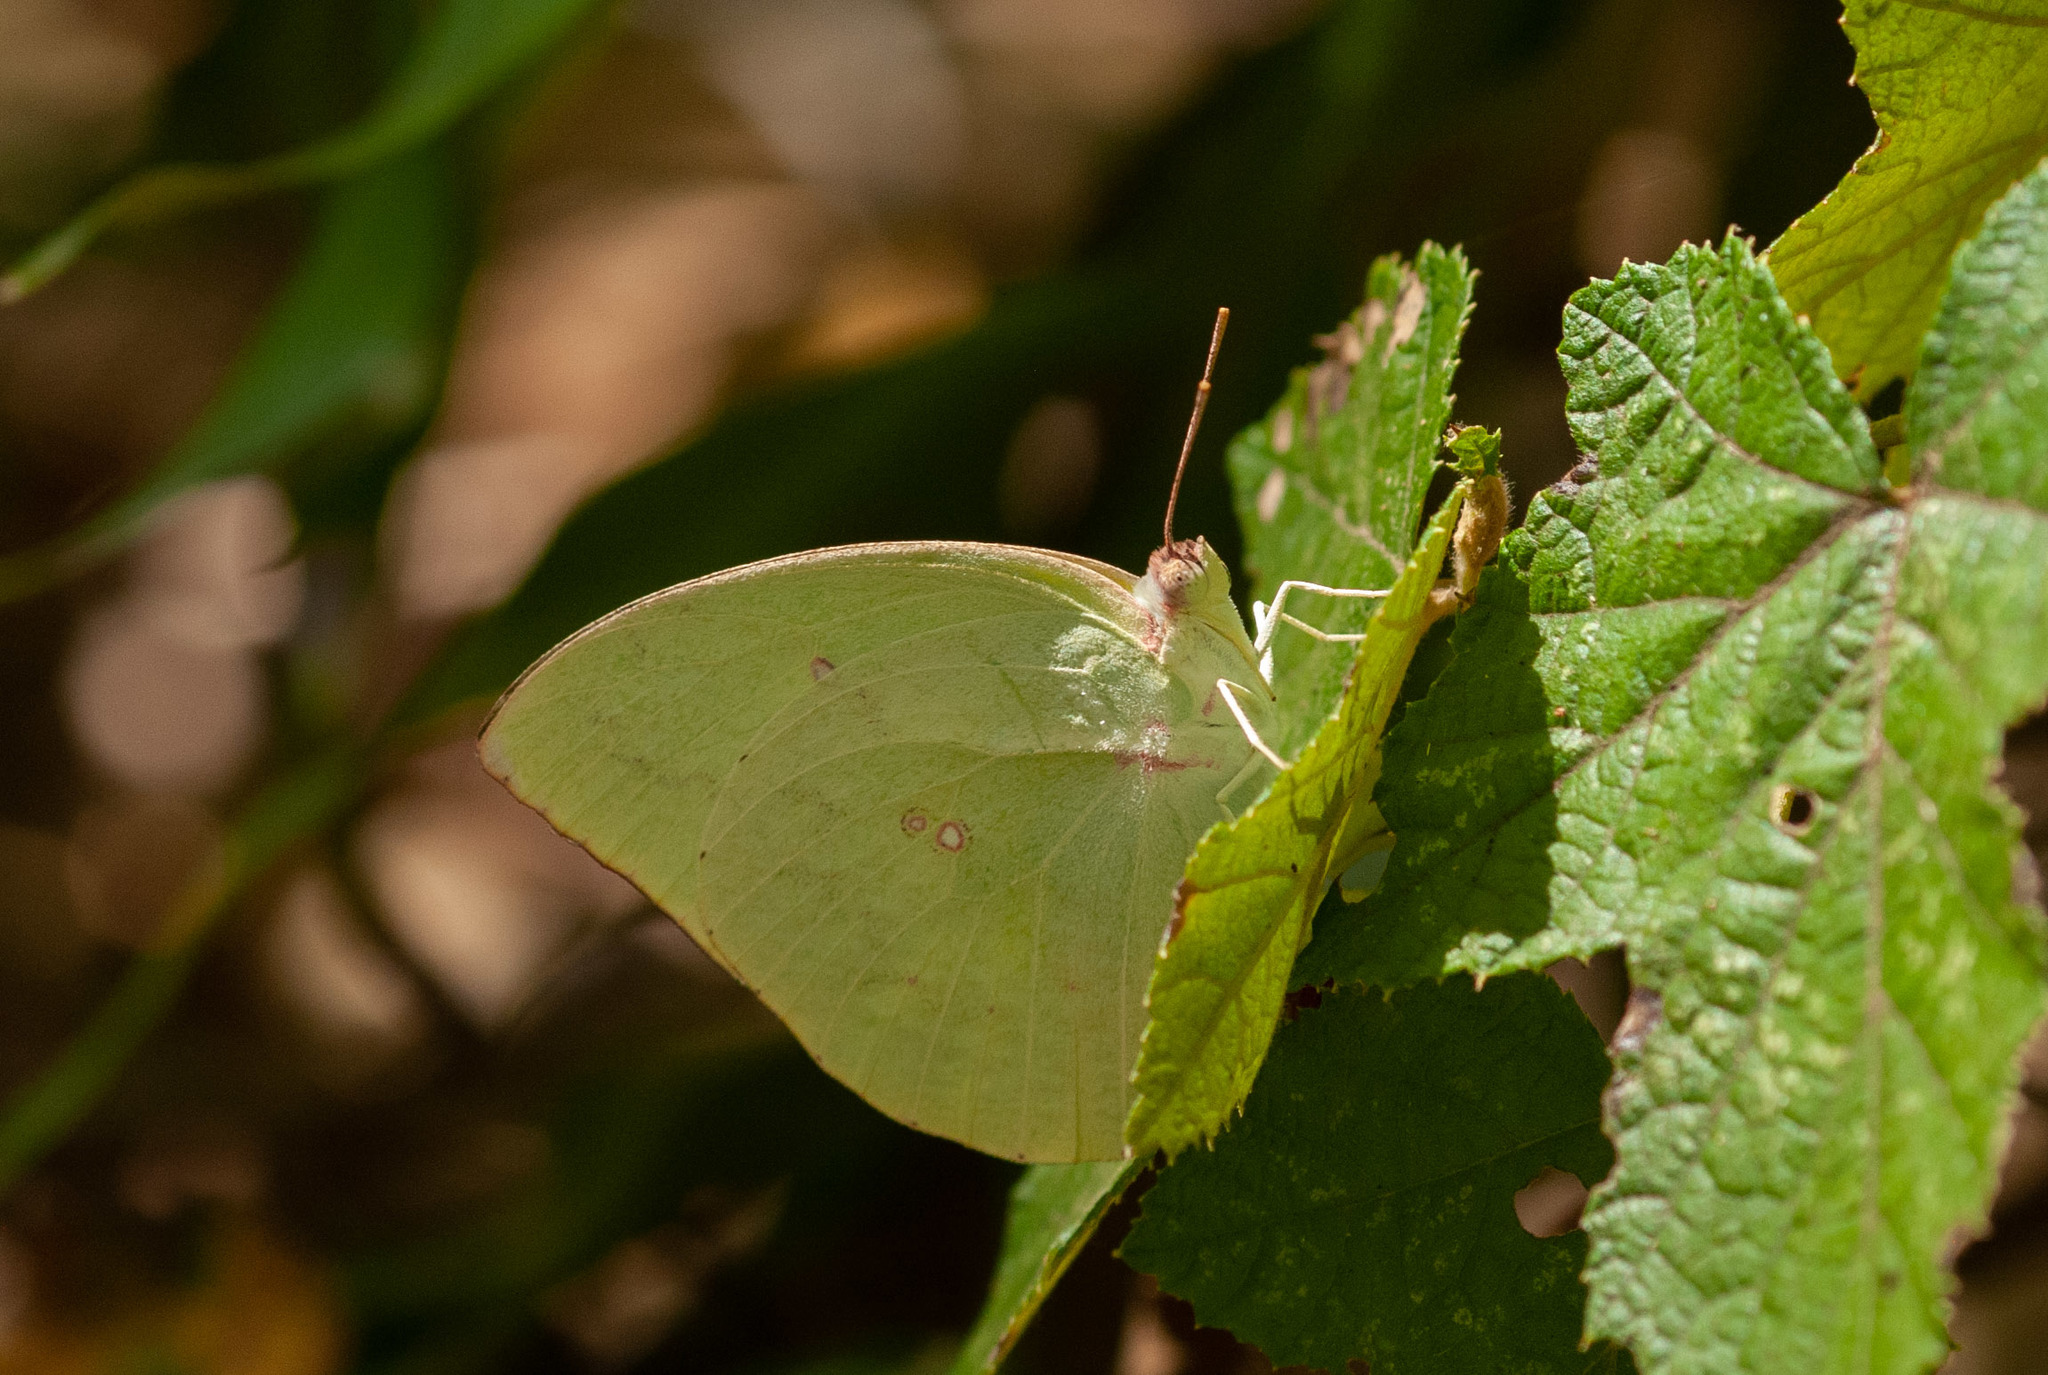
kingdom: Animalia
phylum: Arthropoda
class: Insecta
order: Lepidoptera
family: Pieridae
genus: Catopsilia
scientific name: Catopsilia pomona
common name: Common emigrant
